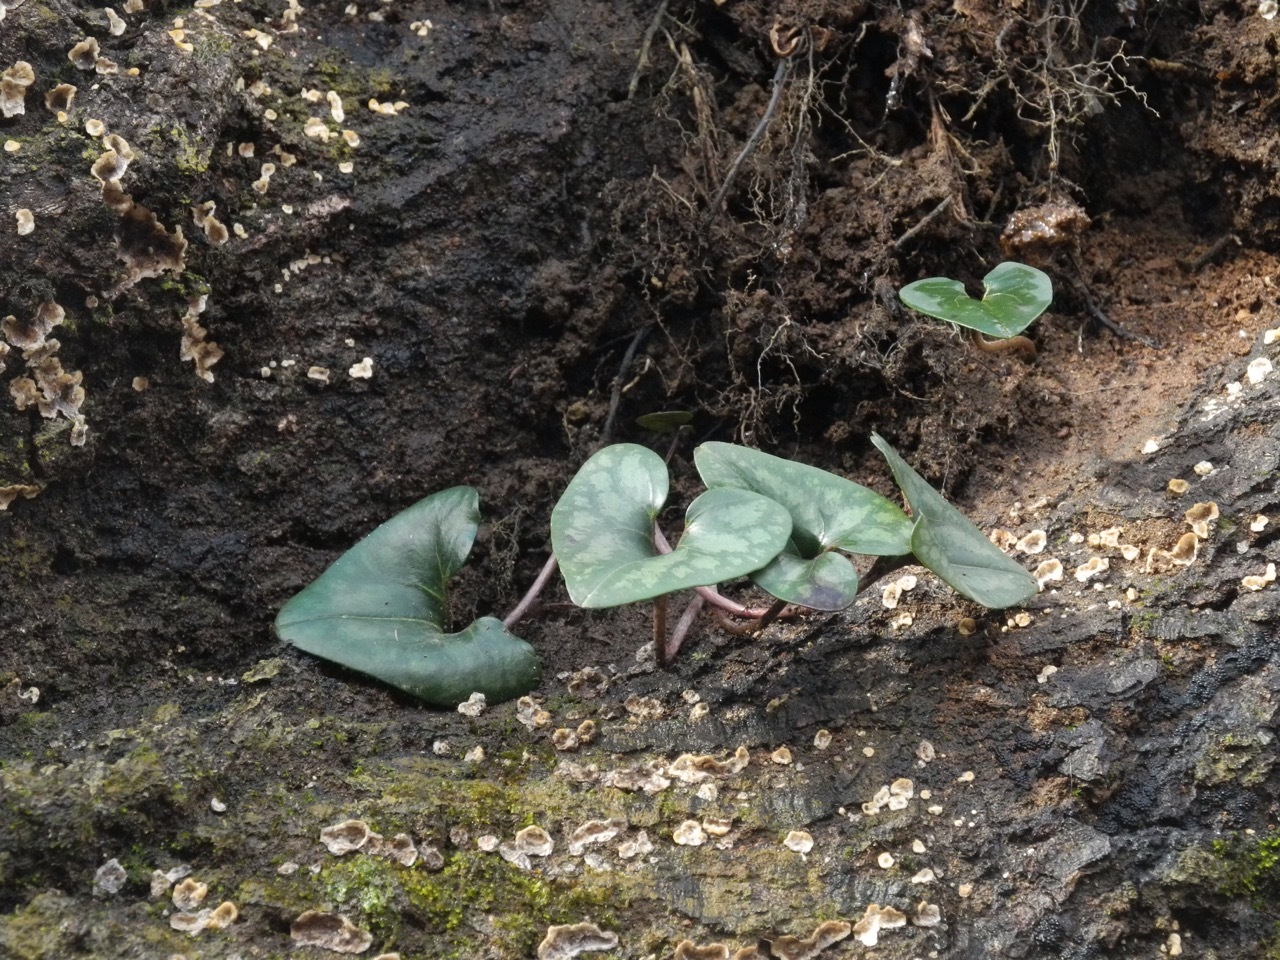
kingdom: Plantae
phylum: Tracheophyta
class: Magnoliopsida
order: Piperales
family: Aristolochiaceae
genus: Hexastylis
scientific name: Hexastylis arifolia
